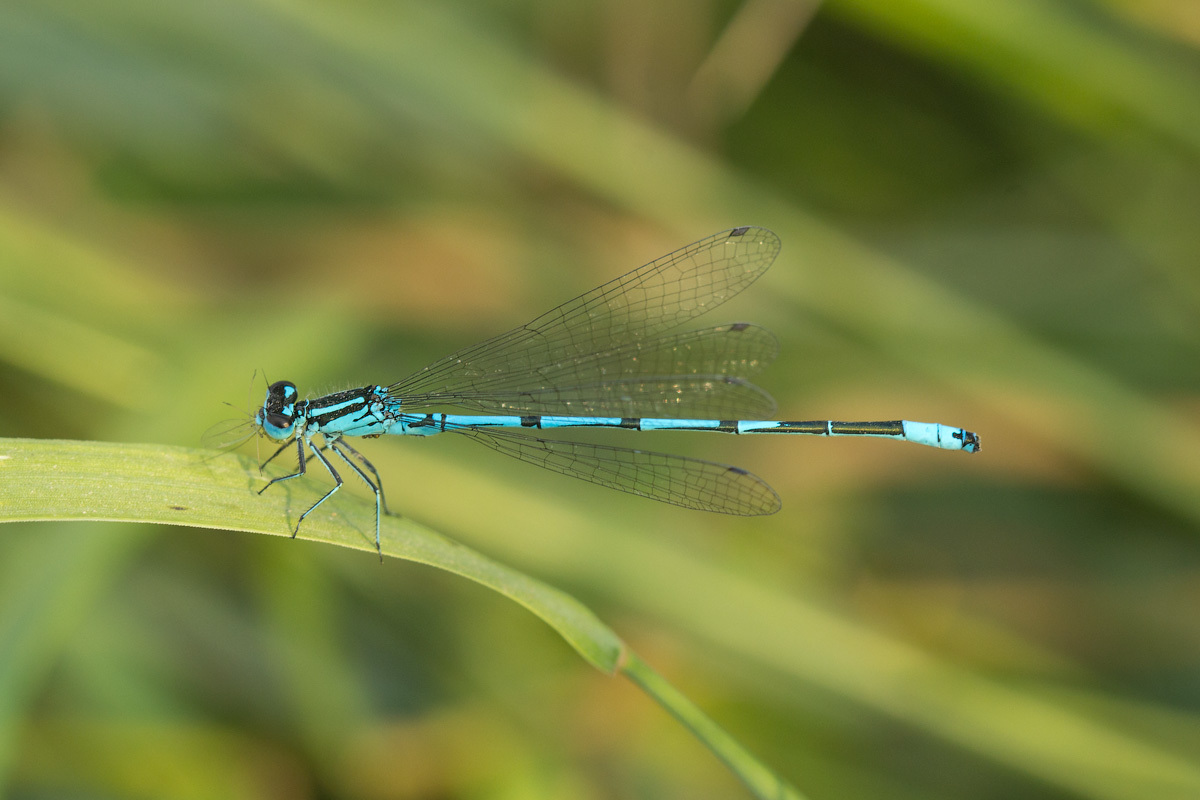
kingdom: Animalia
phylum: Arthropoda
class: Insecta
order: Odonata
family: Coenagrionidae
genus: Coenagrion
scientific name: Coenagrion puella
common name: Azure damselfly
